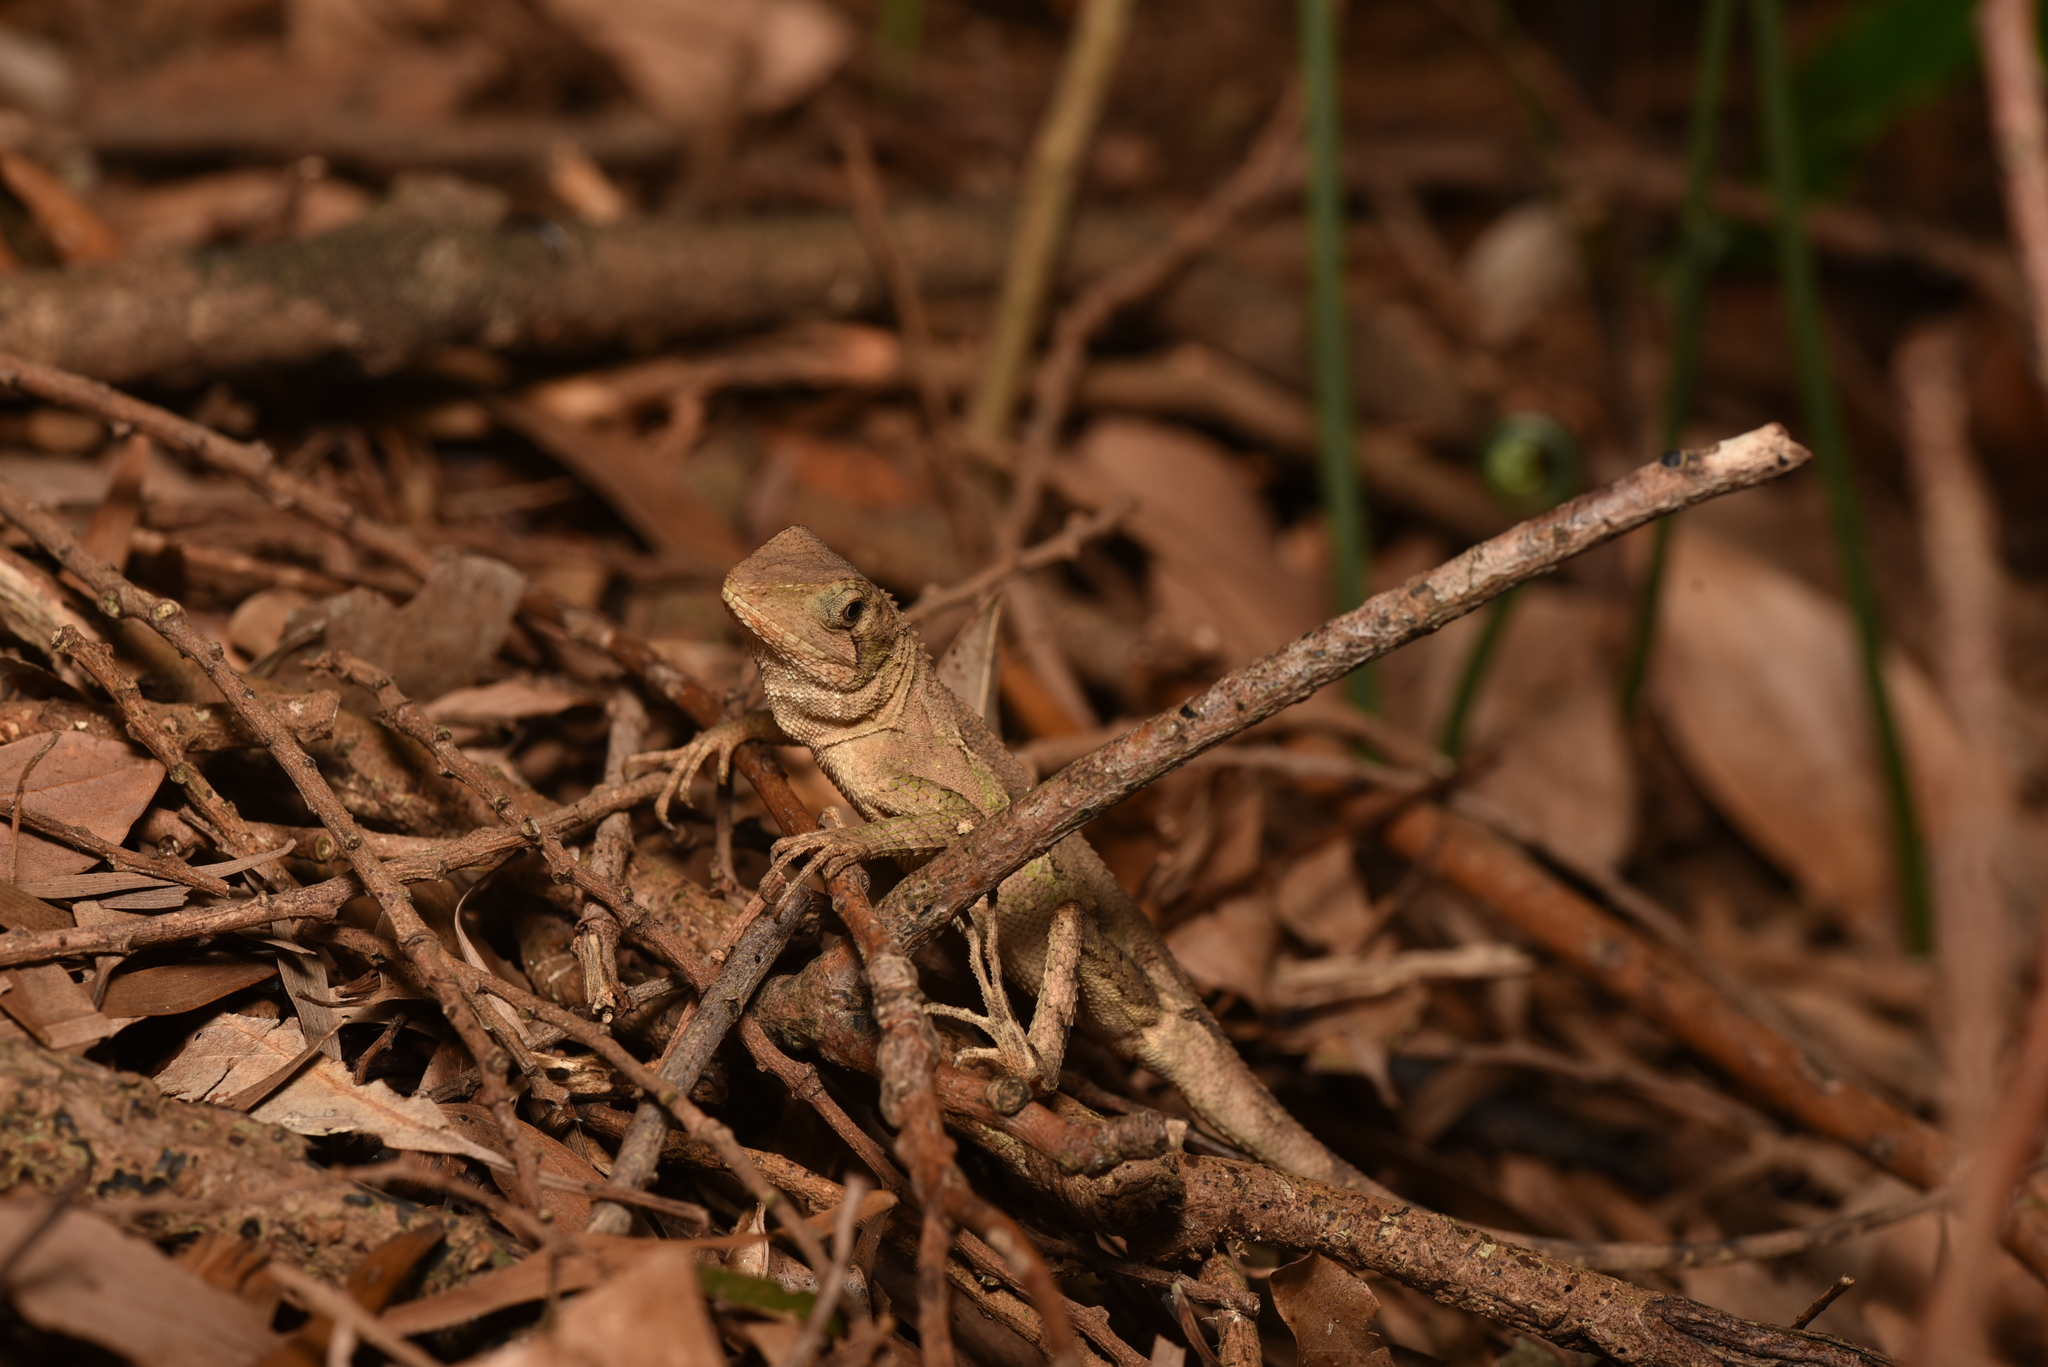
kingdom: Animalia
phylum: Chordata
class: Squamata
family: Agamidae
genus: Diploderma
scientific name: Diploderma swinhonis
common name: Taiwan japalure
